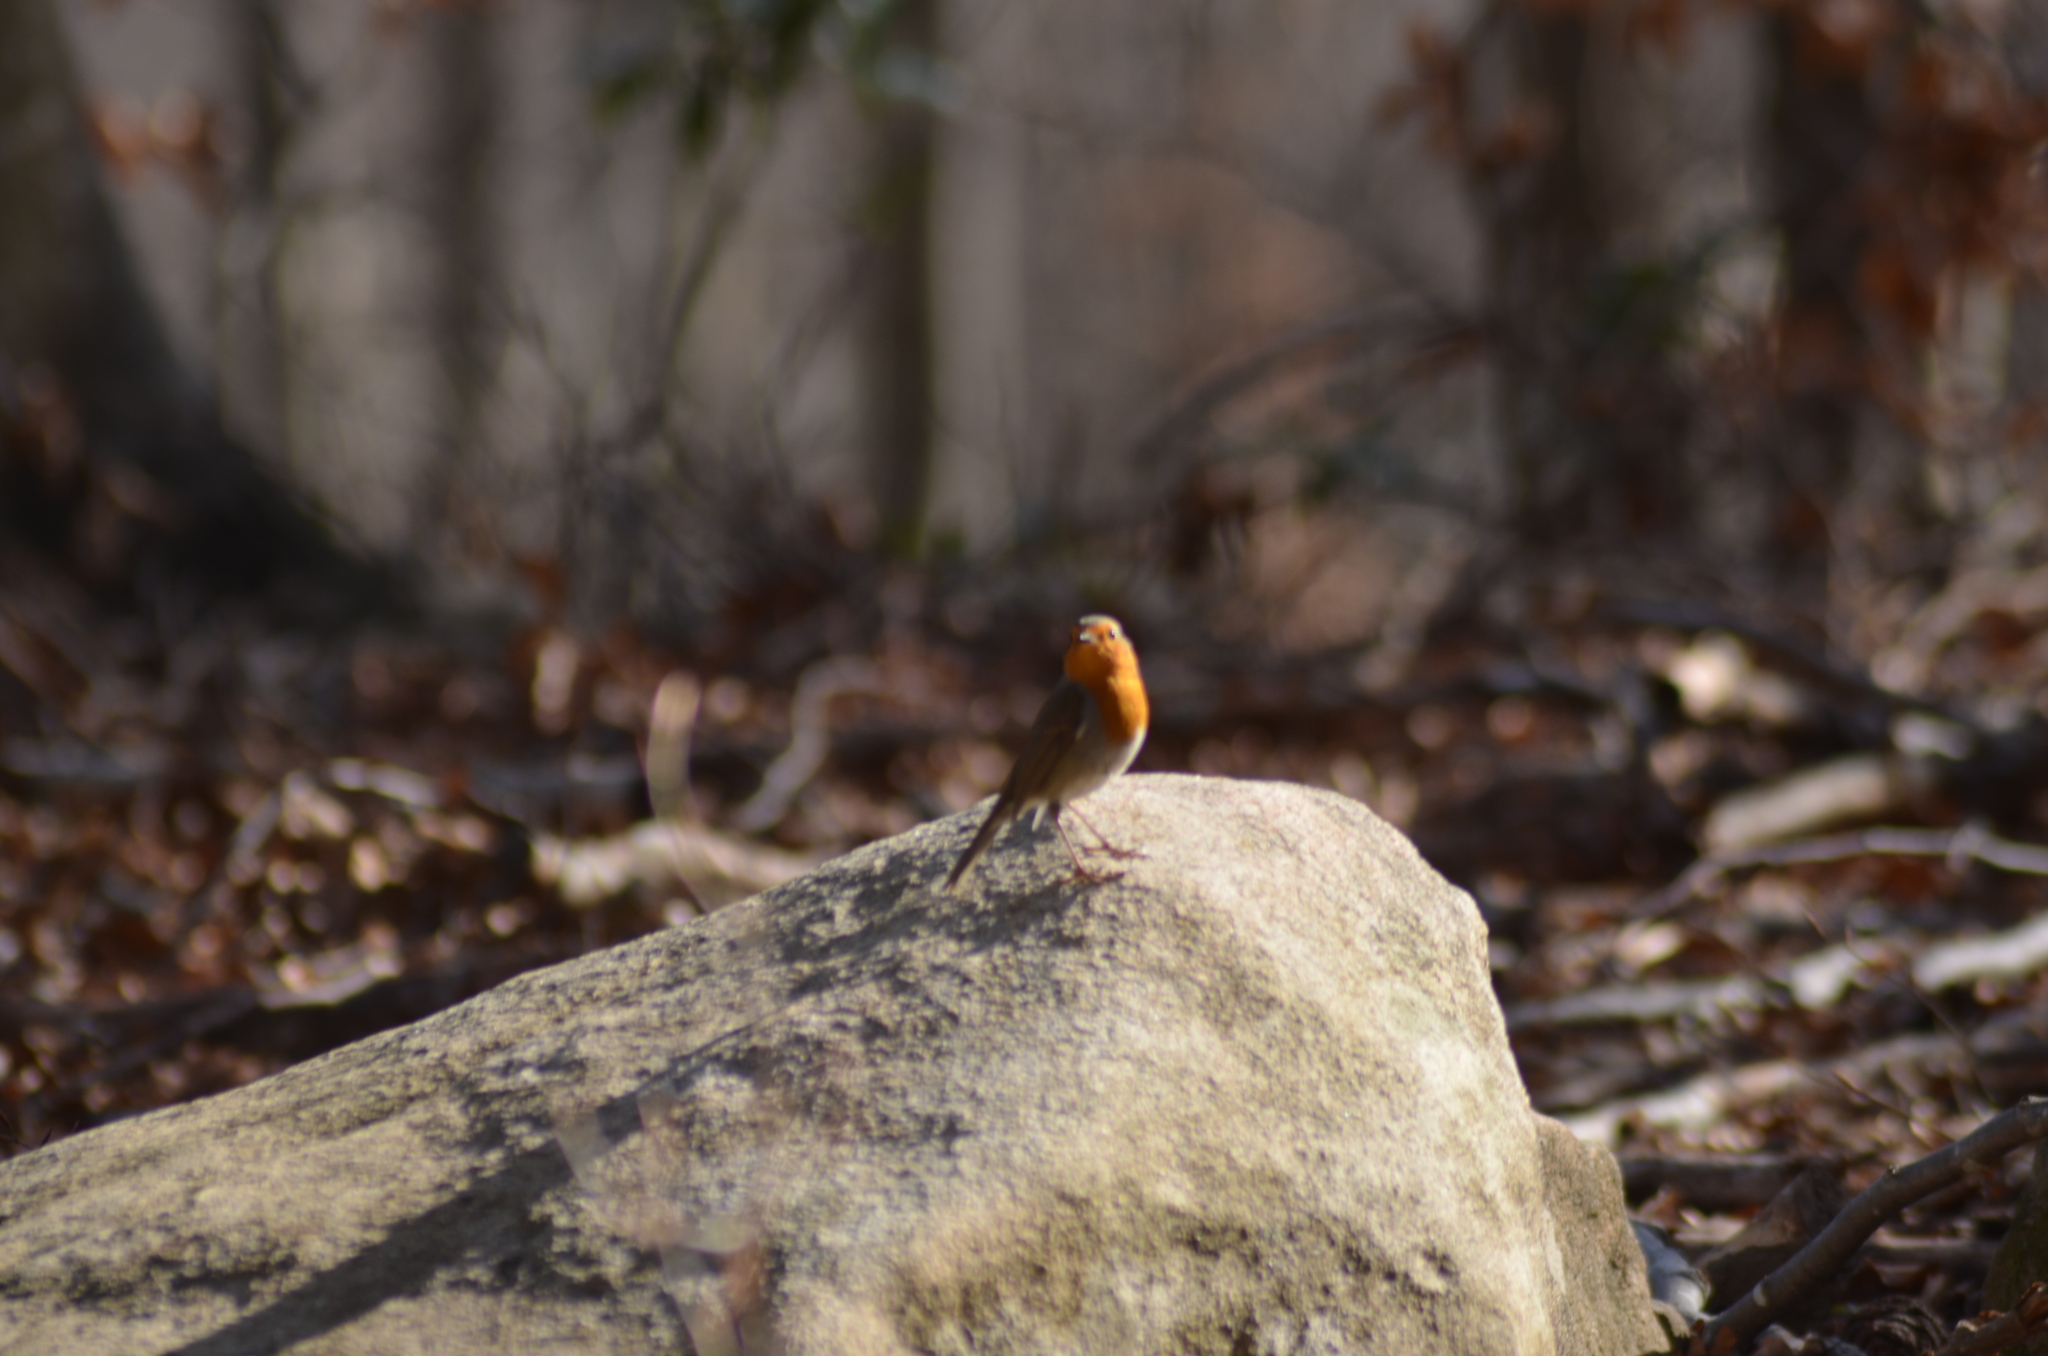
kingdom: Animalia
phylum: Chordata
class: Aves
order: Passeriformes
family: Muscicapidae
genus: Erithacus
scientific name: Erithacus rubecula
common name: European robin
